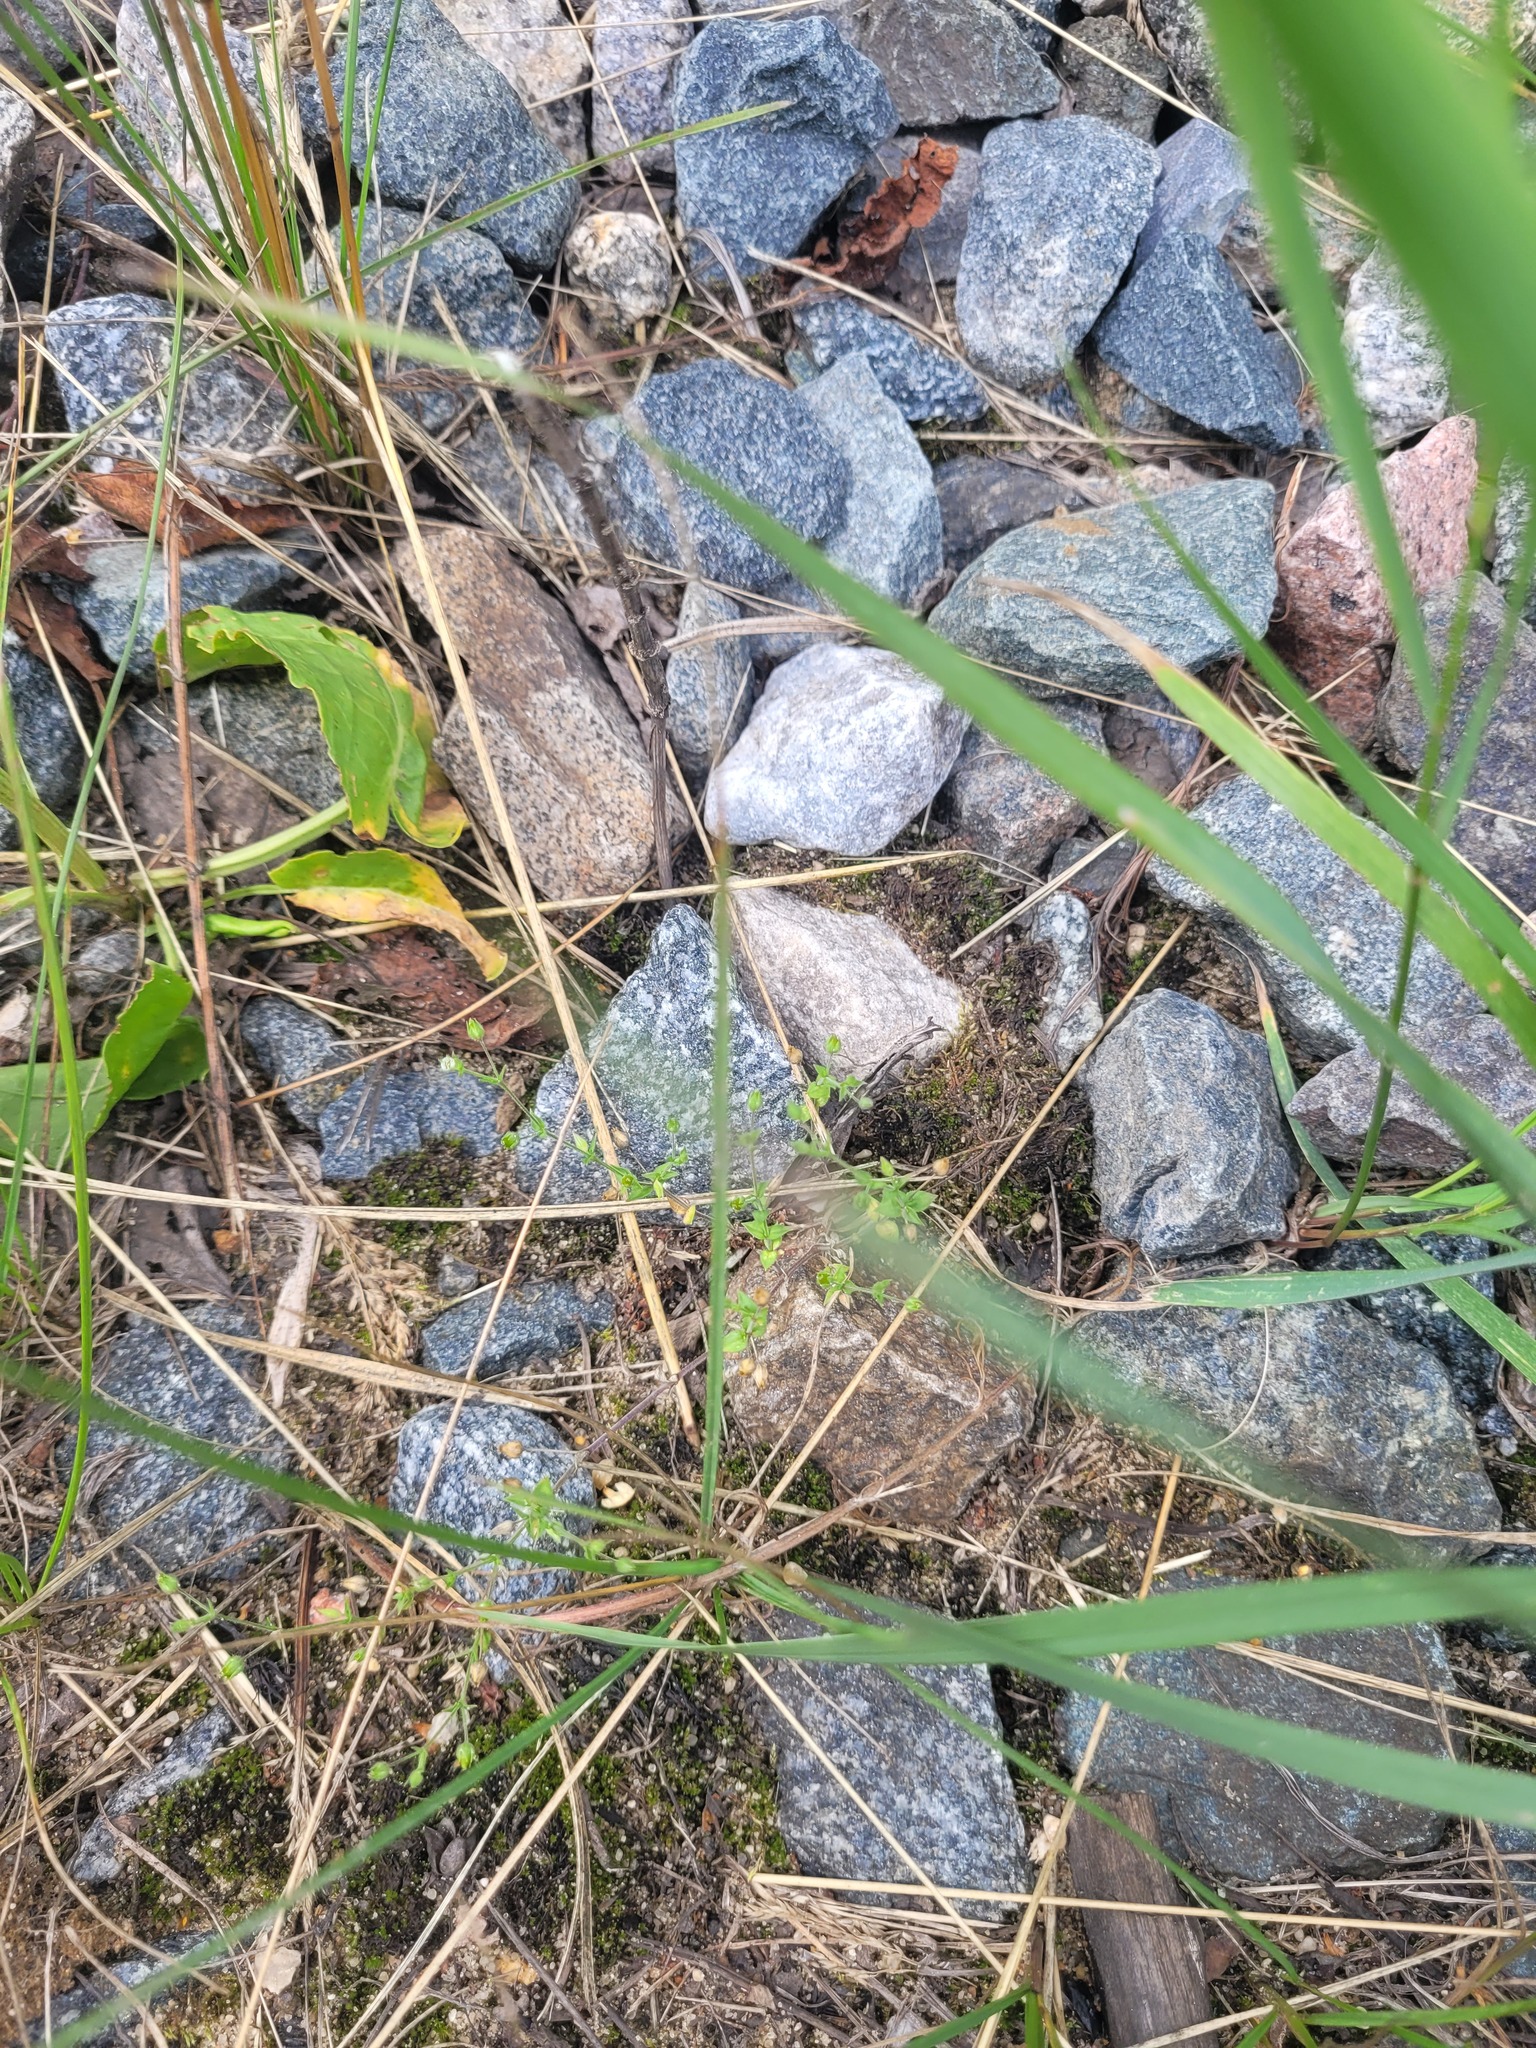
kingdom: Plantae
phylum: Tracheophyta
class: Magnoliopsida
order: Caryophyllales
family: Caryophyllaceae
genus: Arenaria
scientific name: Arenaria serpyllifolia
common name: Thyme-leaved sandwort
